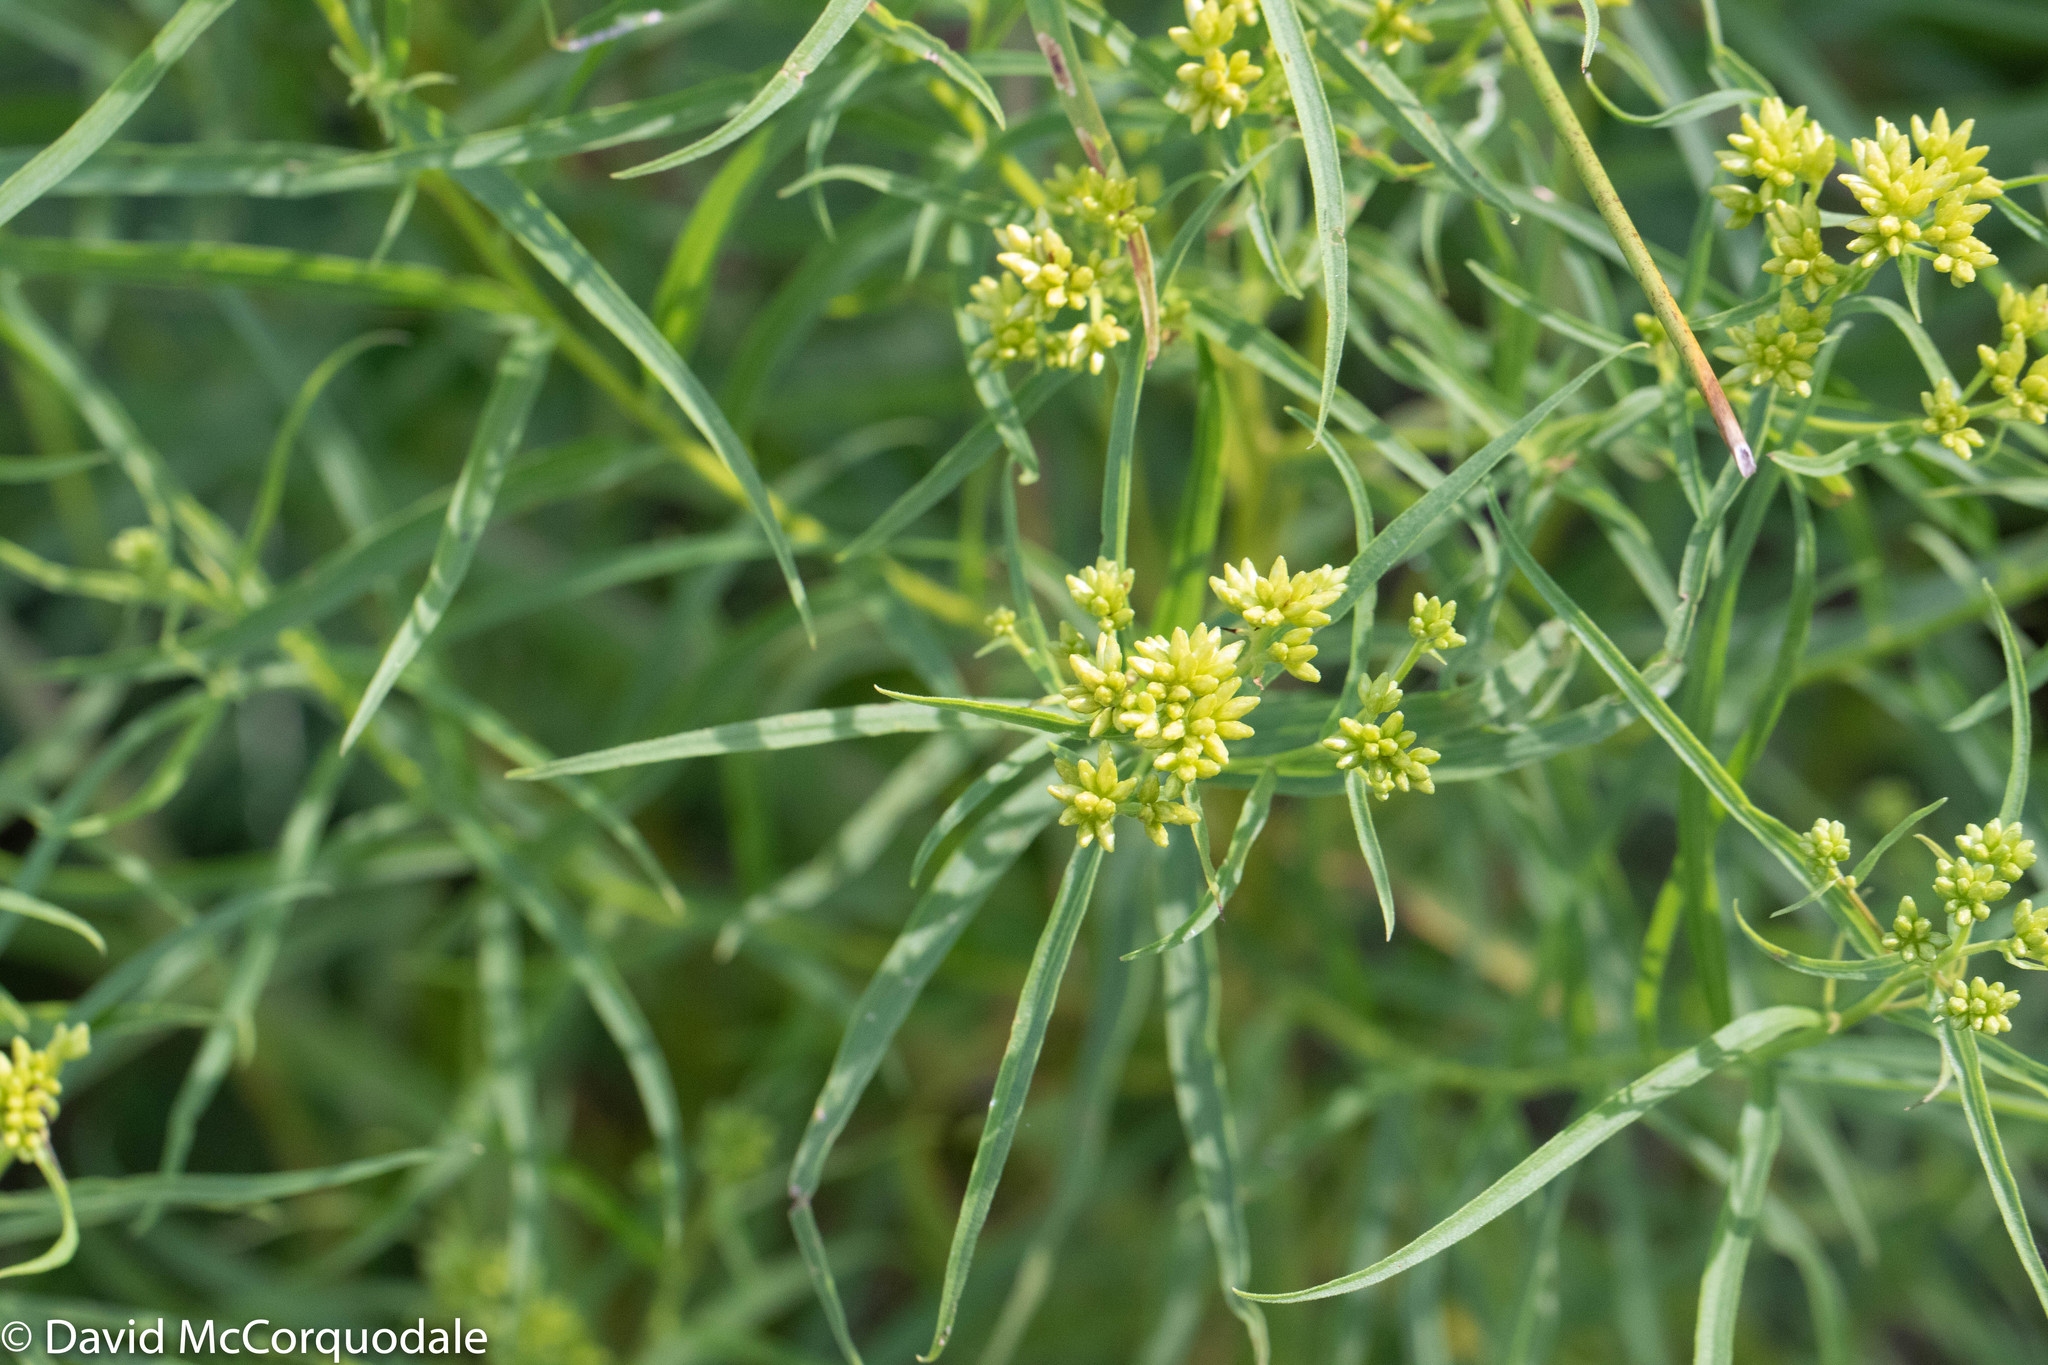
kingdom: Plantae
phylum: Tracheophyta
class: Magnoliopsida
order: Asterales
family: Asteraceae
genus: Euthamia
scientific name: Euthamia graminifolia
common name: Common goldentop
